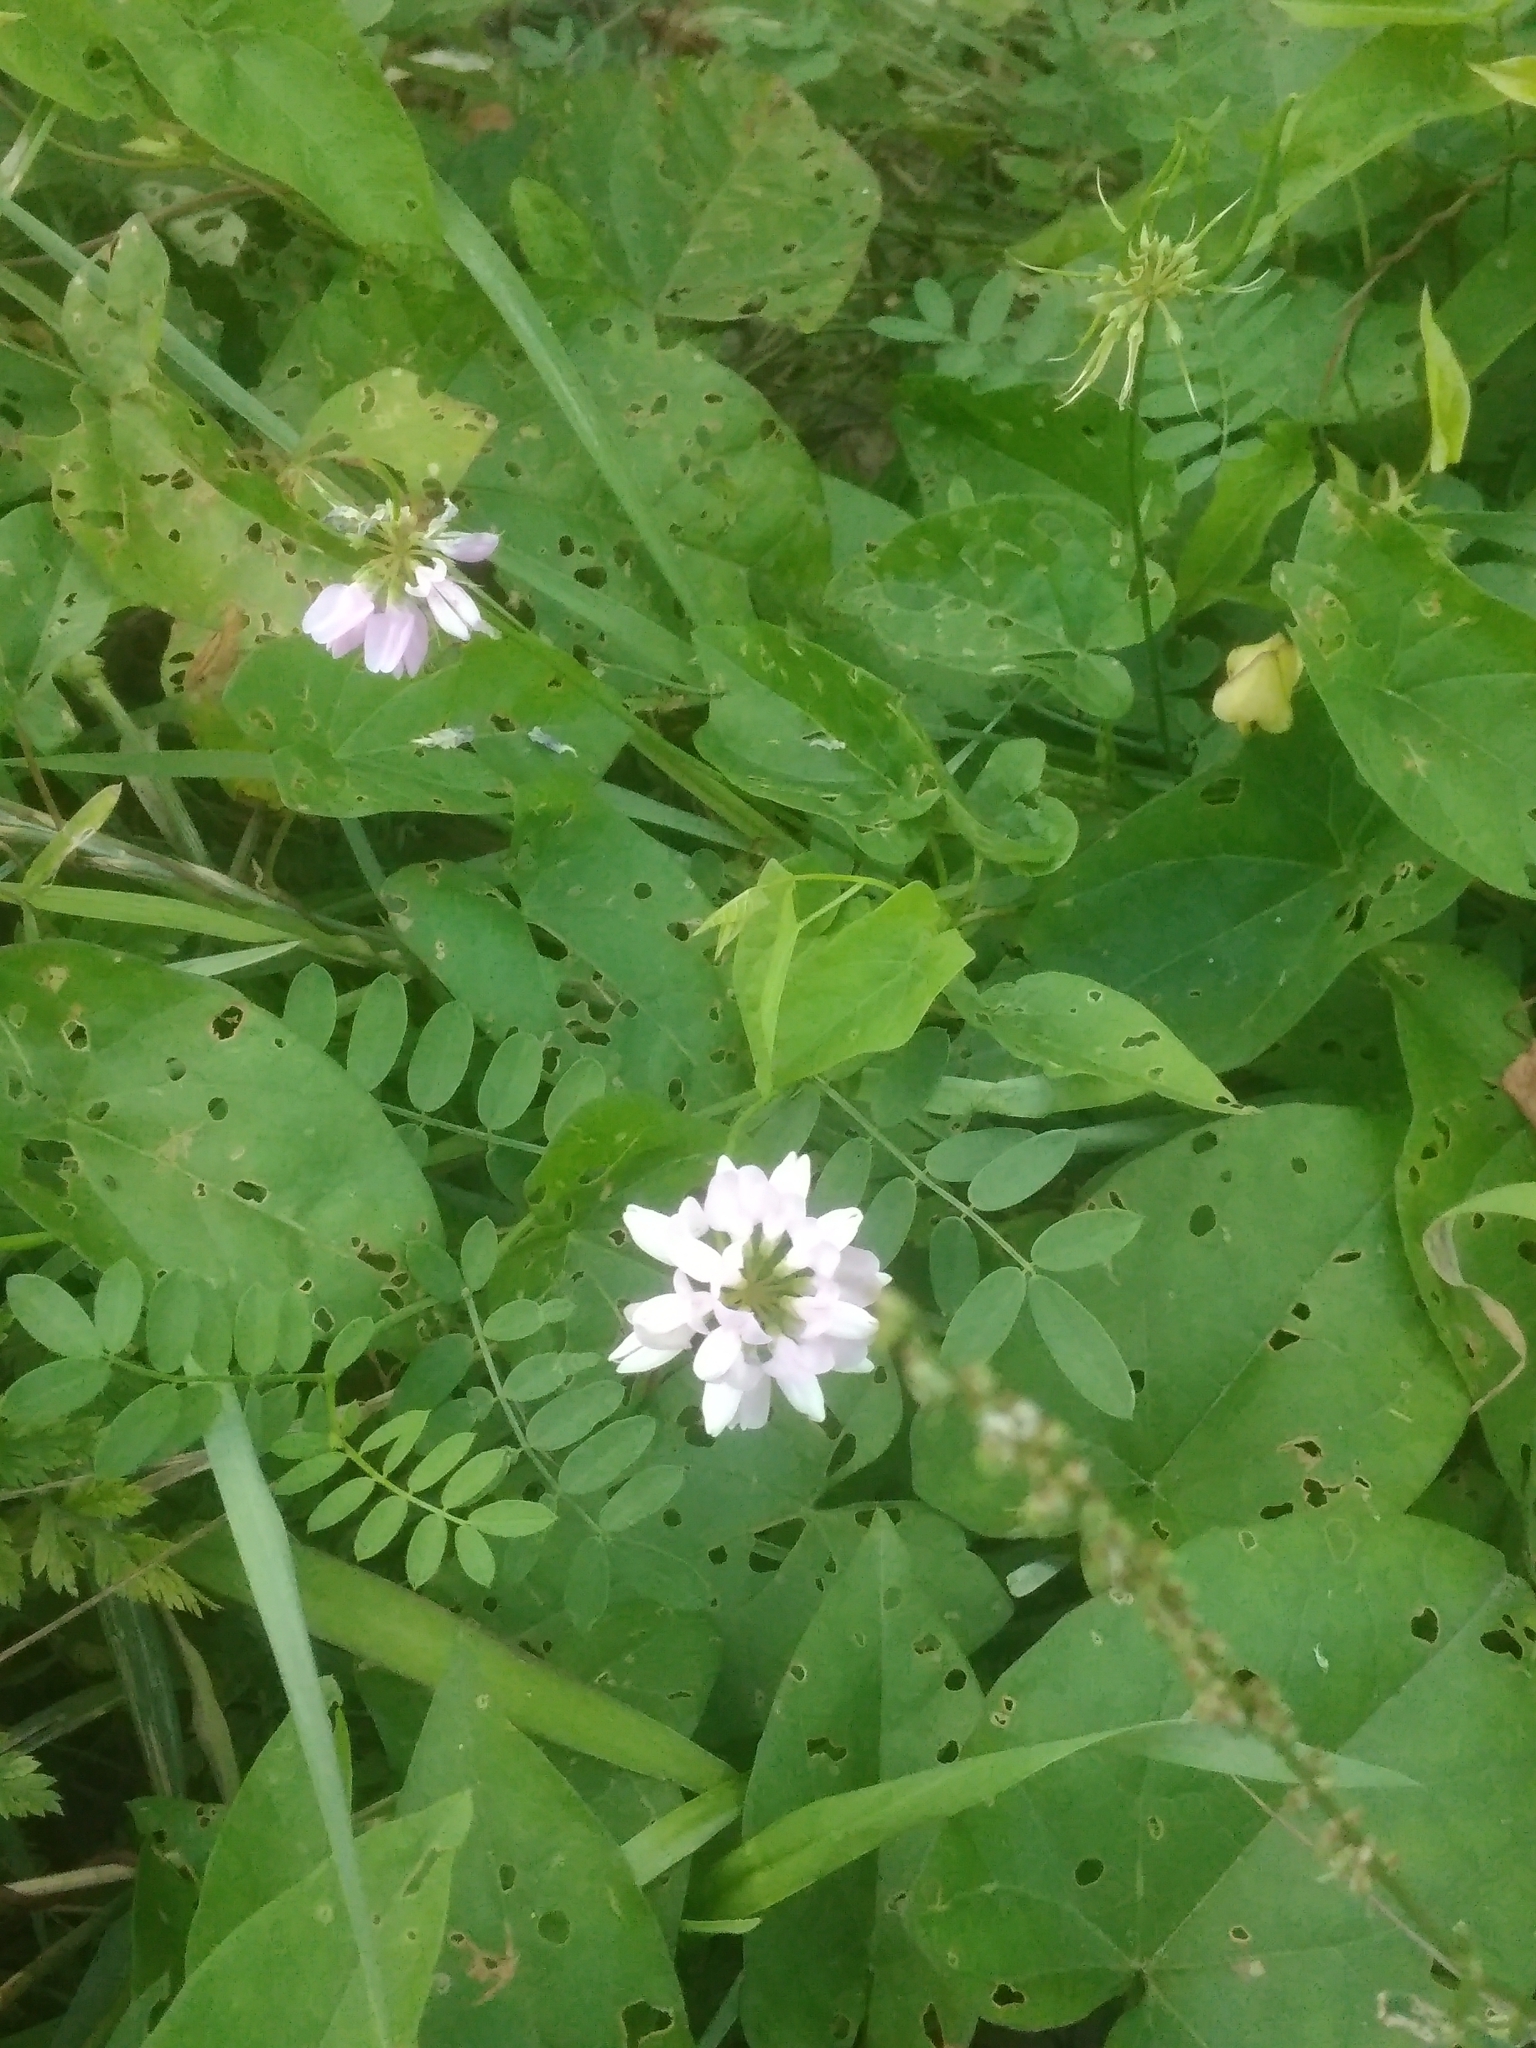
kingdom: Plantae
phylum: Tracheophyta
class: Magnoliopsida
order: Fabales
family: Fabaceae
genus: Coronilla
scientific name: Coronilla varia
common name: Crownvetch
